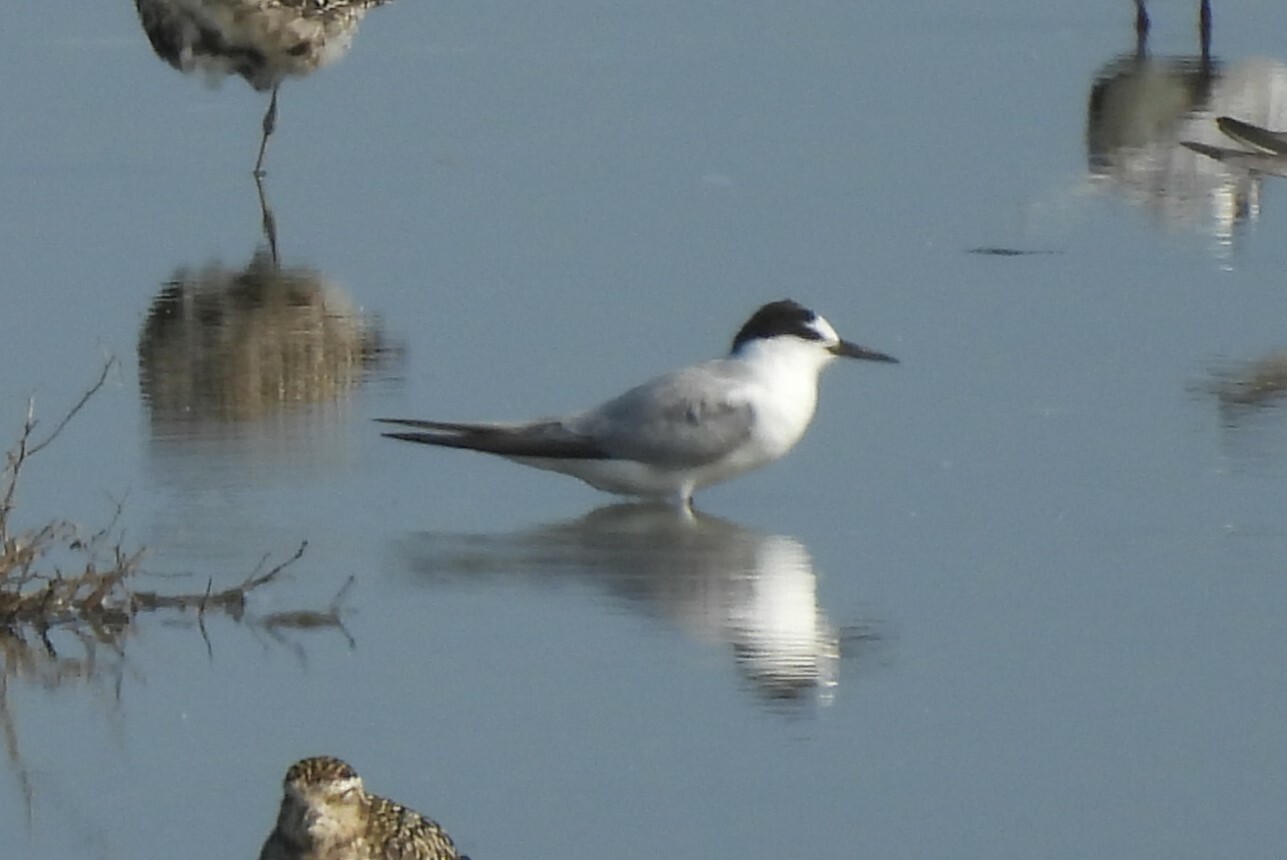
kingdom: Animalia
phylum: Chordata
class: Aves
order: Charadriiformes
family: Laridae
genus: Onychoprion
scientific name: Onychoprion aleuticus
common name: Aleutian tern
